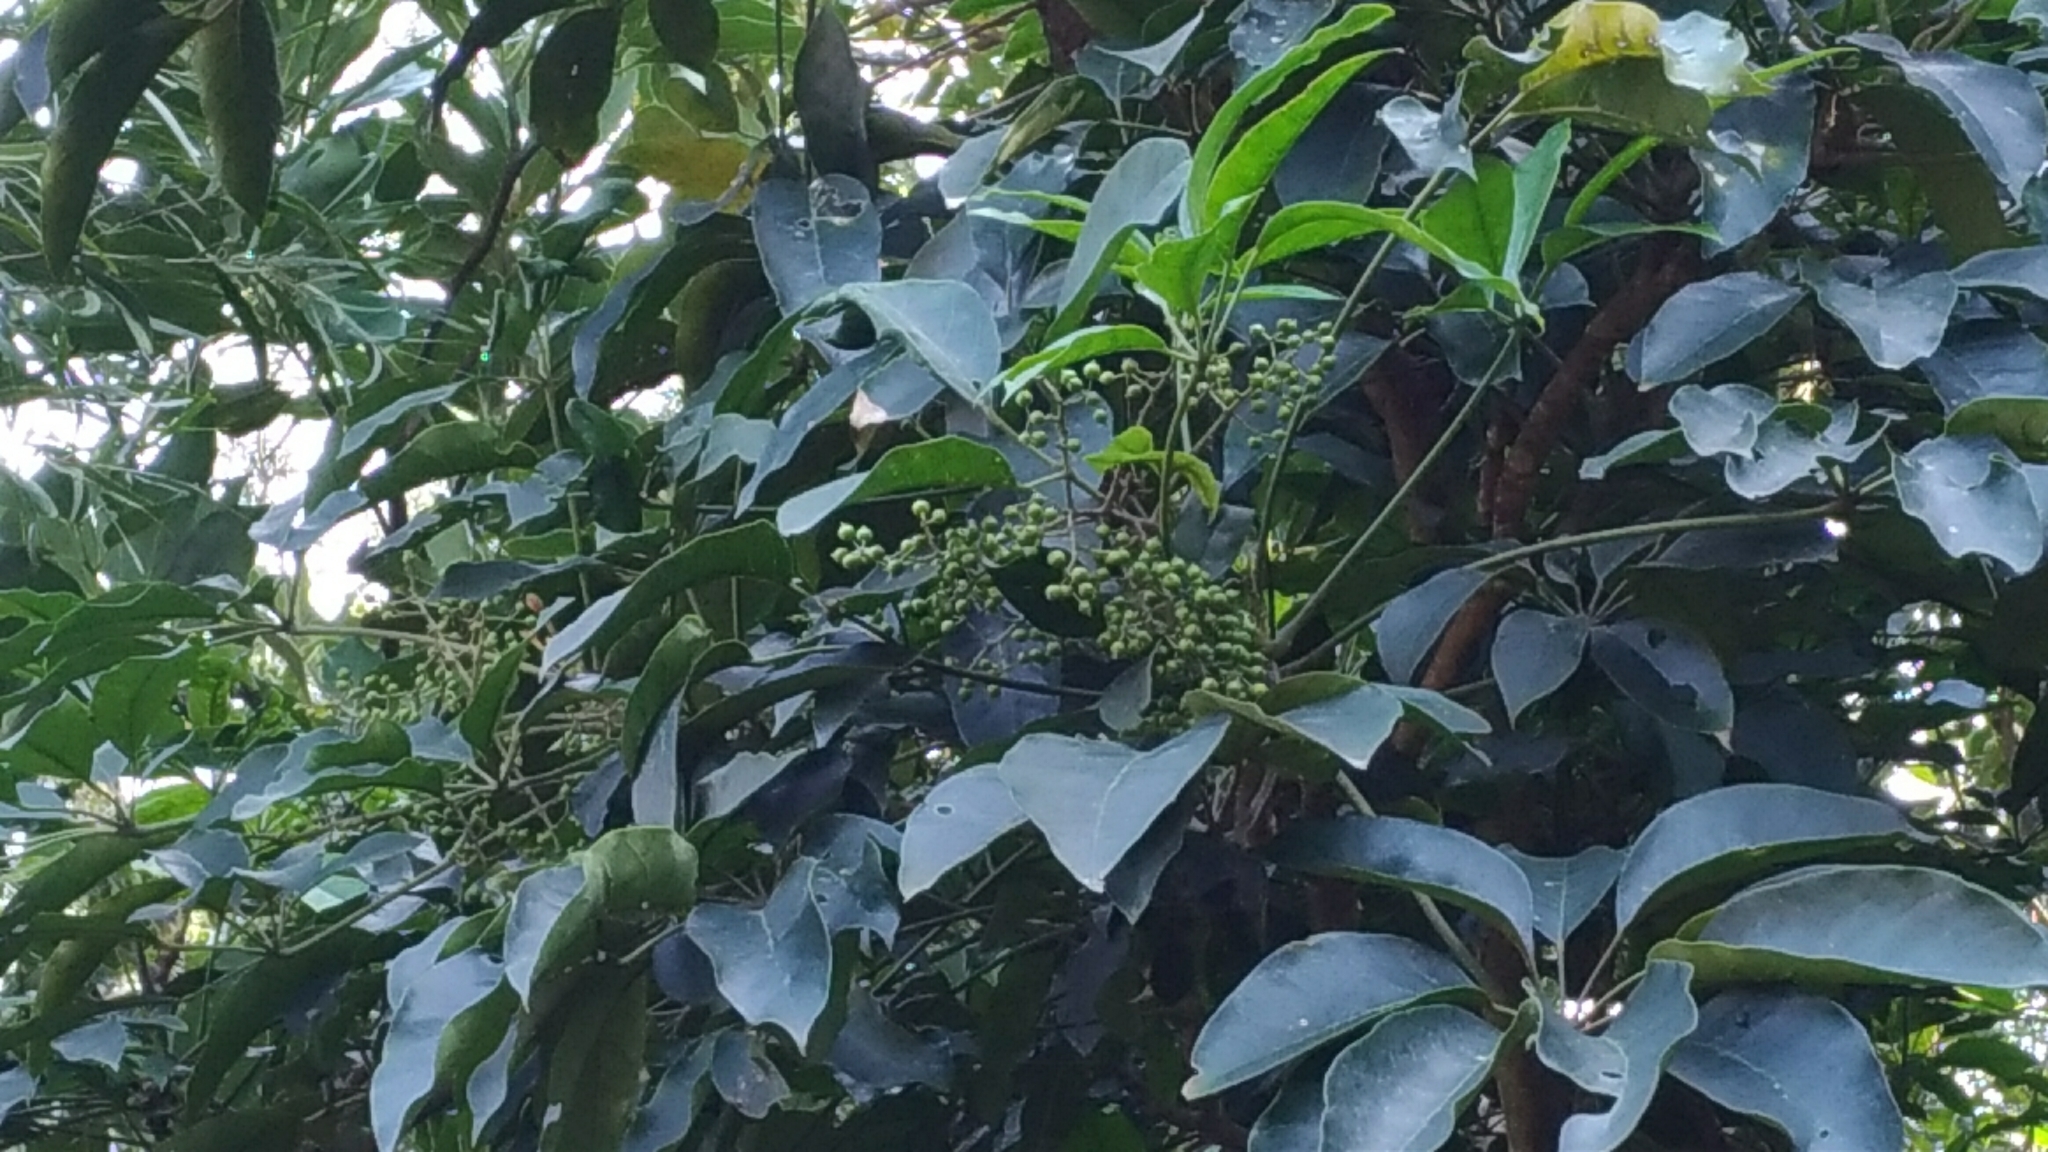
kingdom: Plantae
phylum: Tracheophyta
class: Magnoliopsida
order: Apiales
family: Araliaceae
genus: Heptapleurum
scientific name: Heptapleurum heptaphyllum
